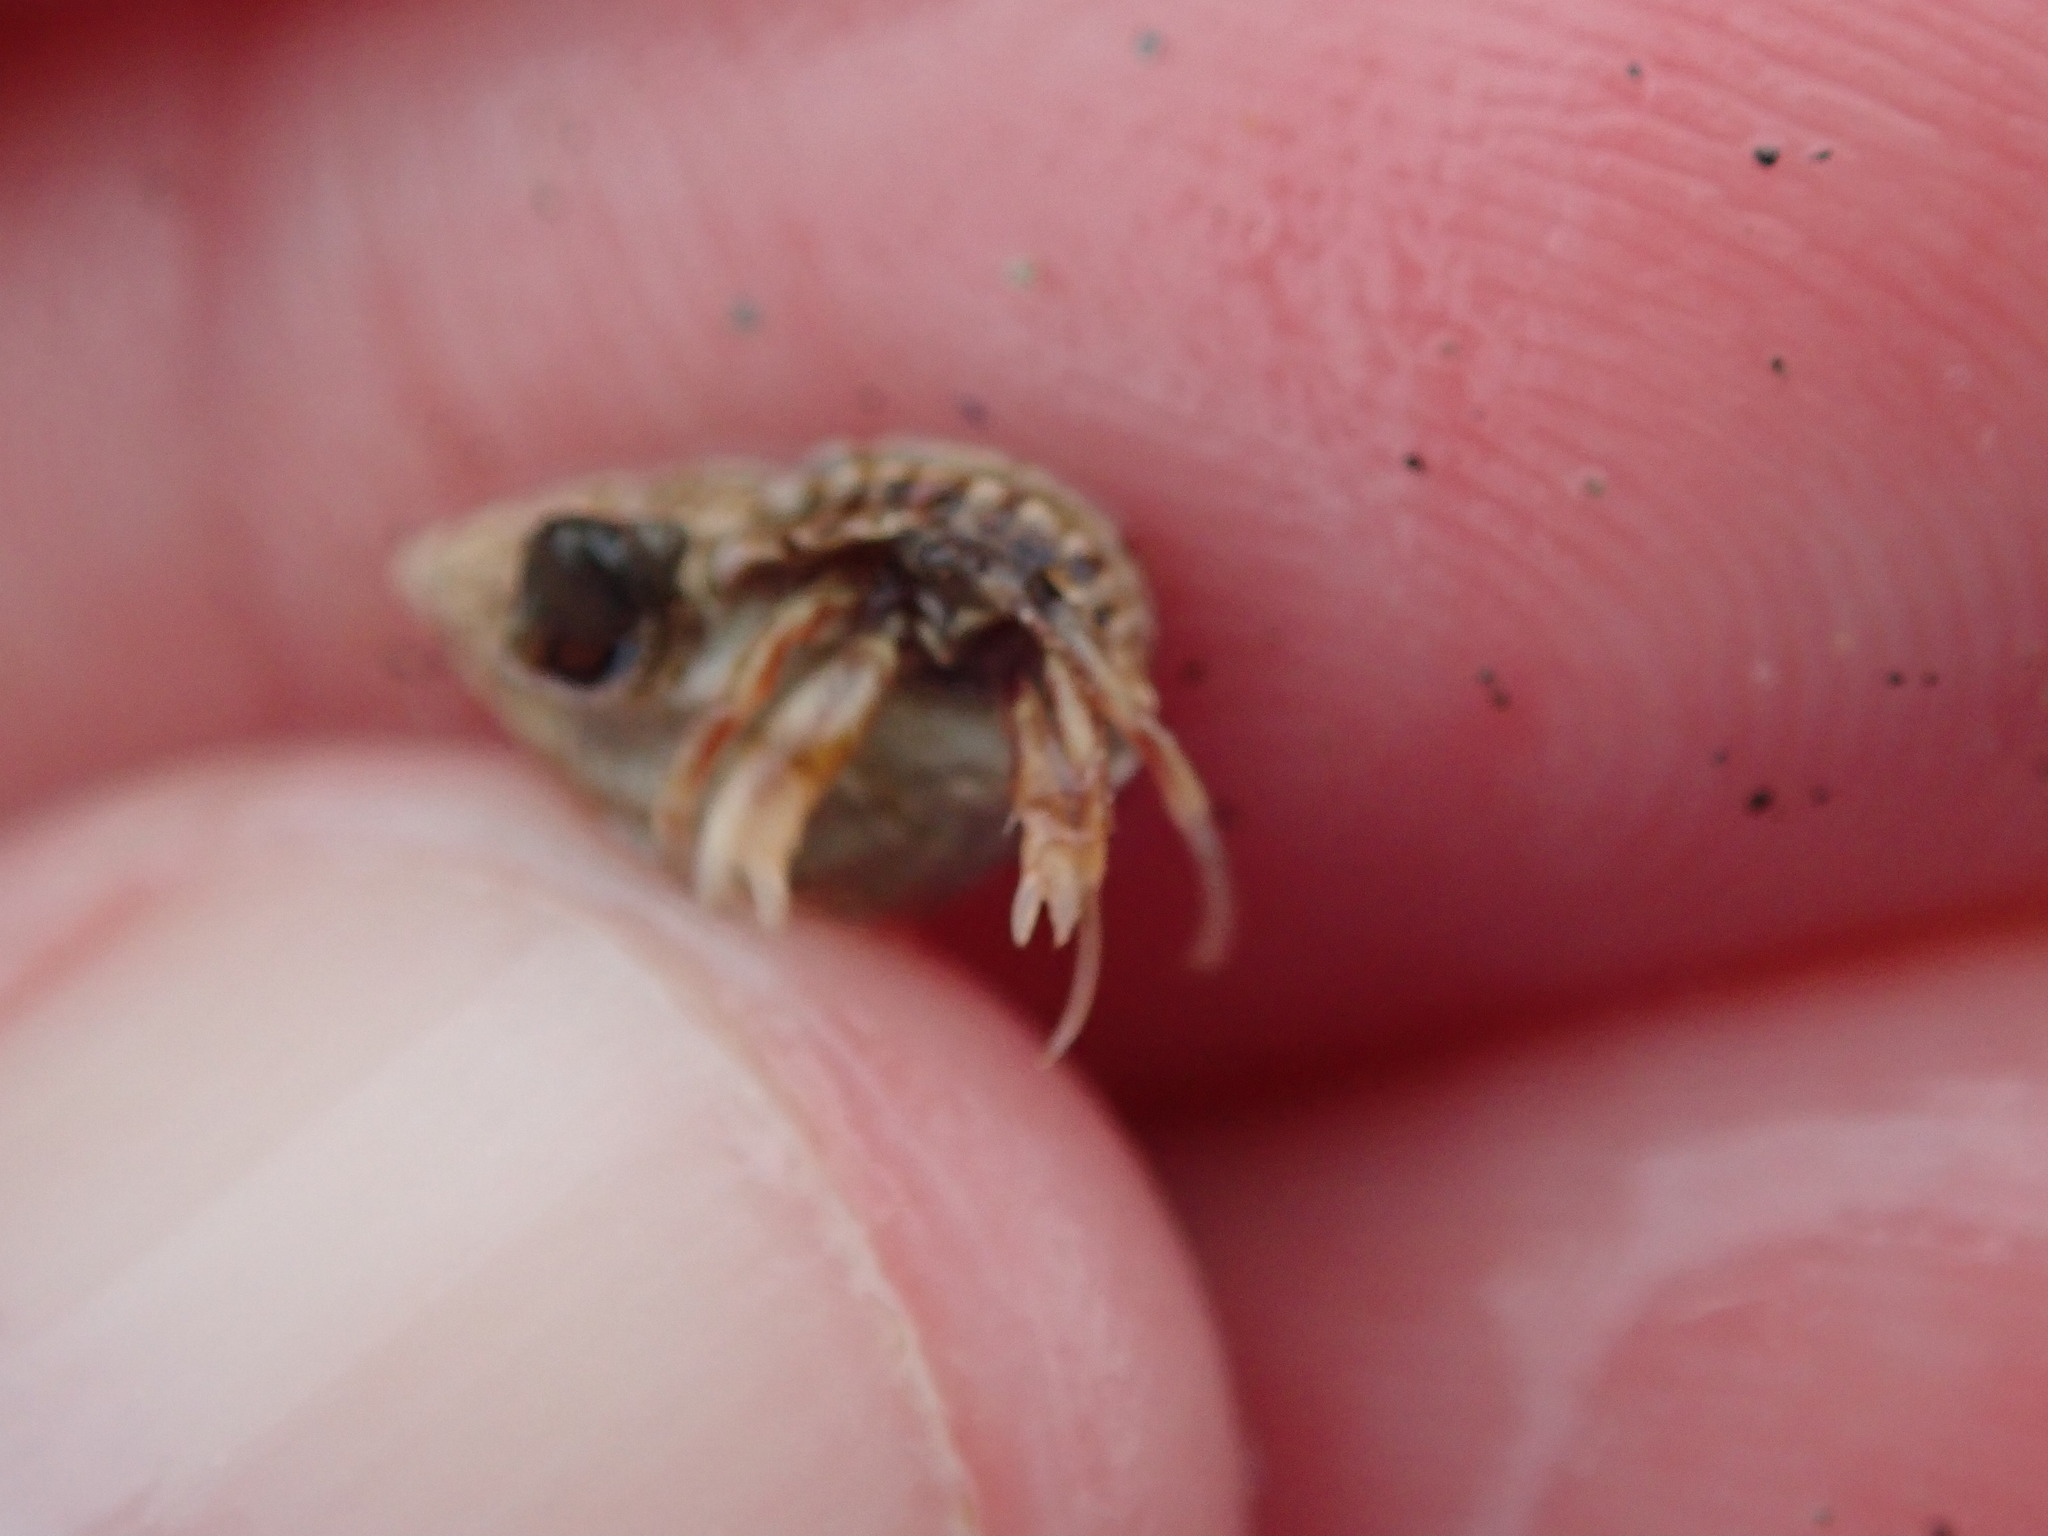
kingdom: Animalia
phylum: Arthropoda
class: Malacostraca
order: Decapoda
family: Paguridae
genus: Pagurus
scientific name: Pagurus longicarpus
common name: Long-armed hermit crab
